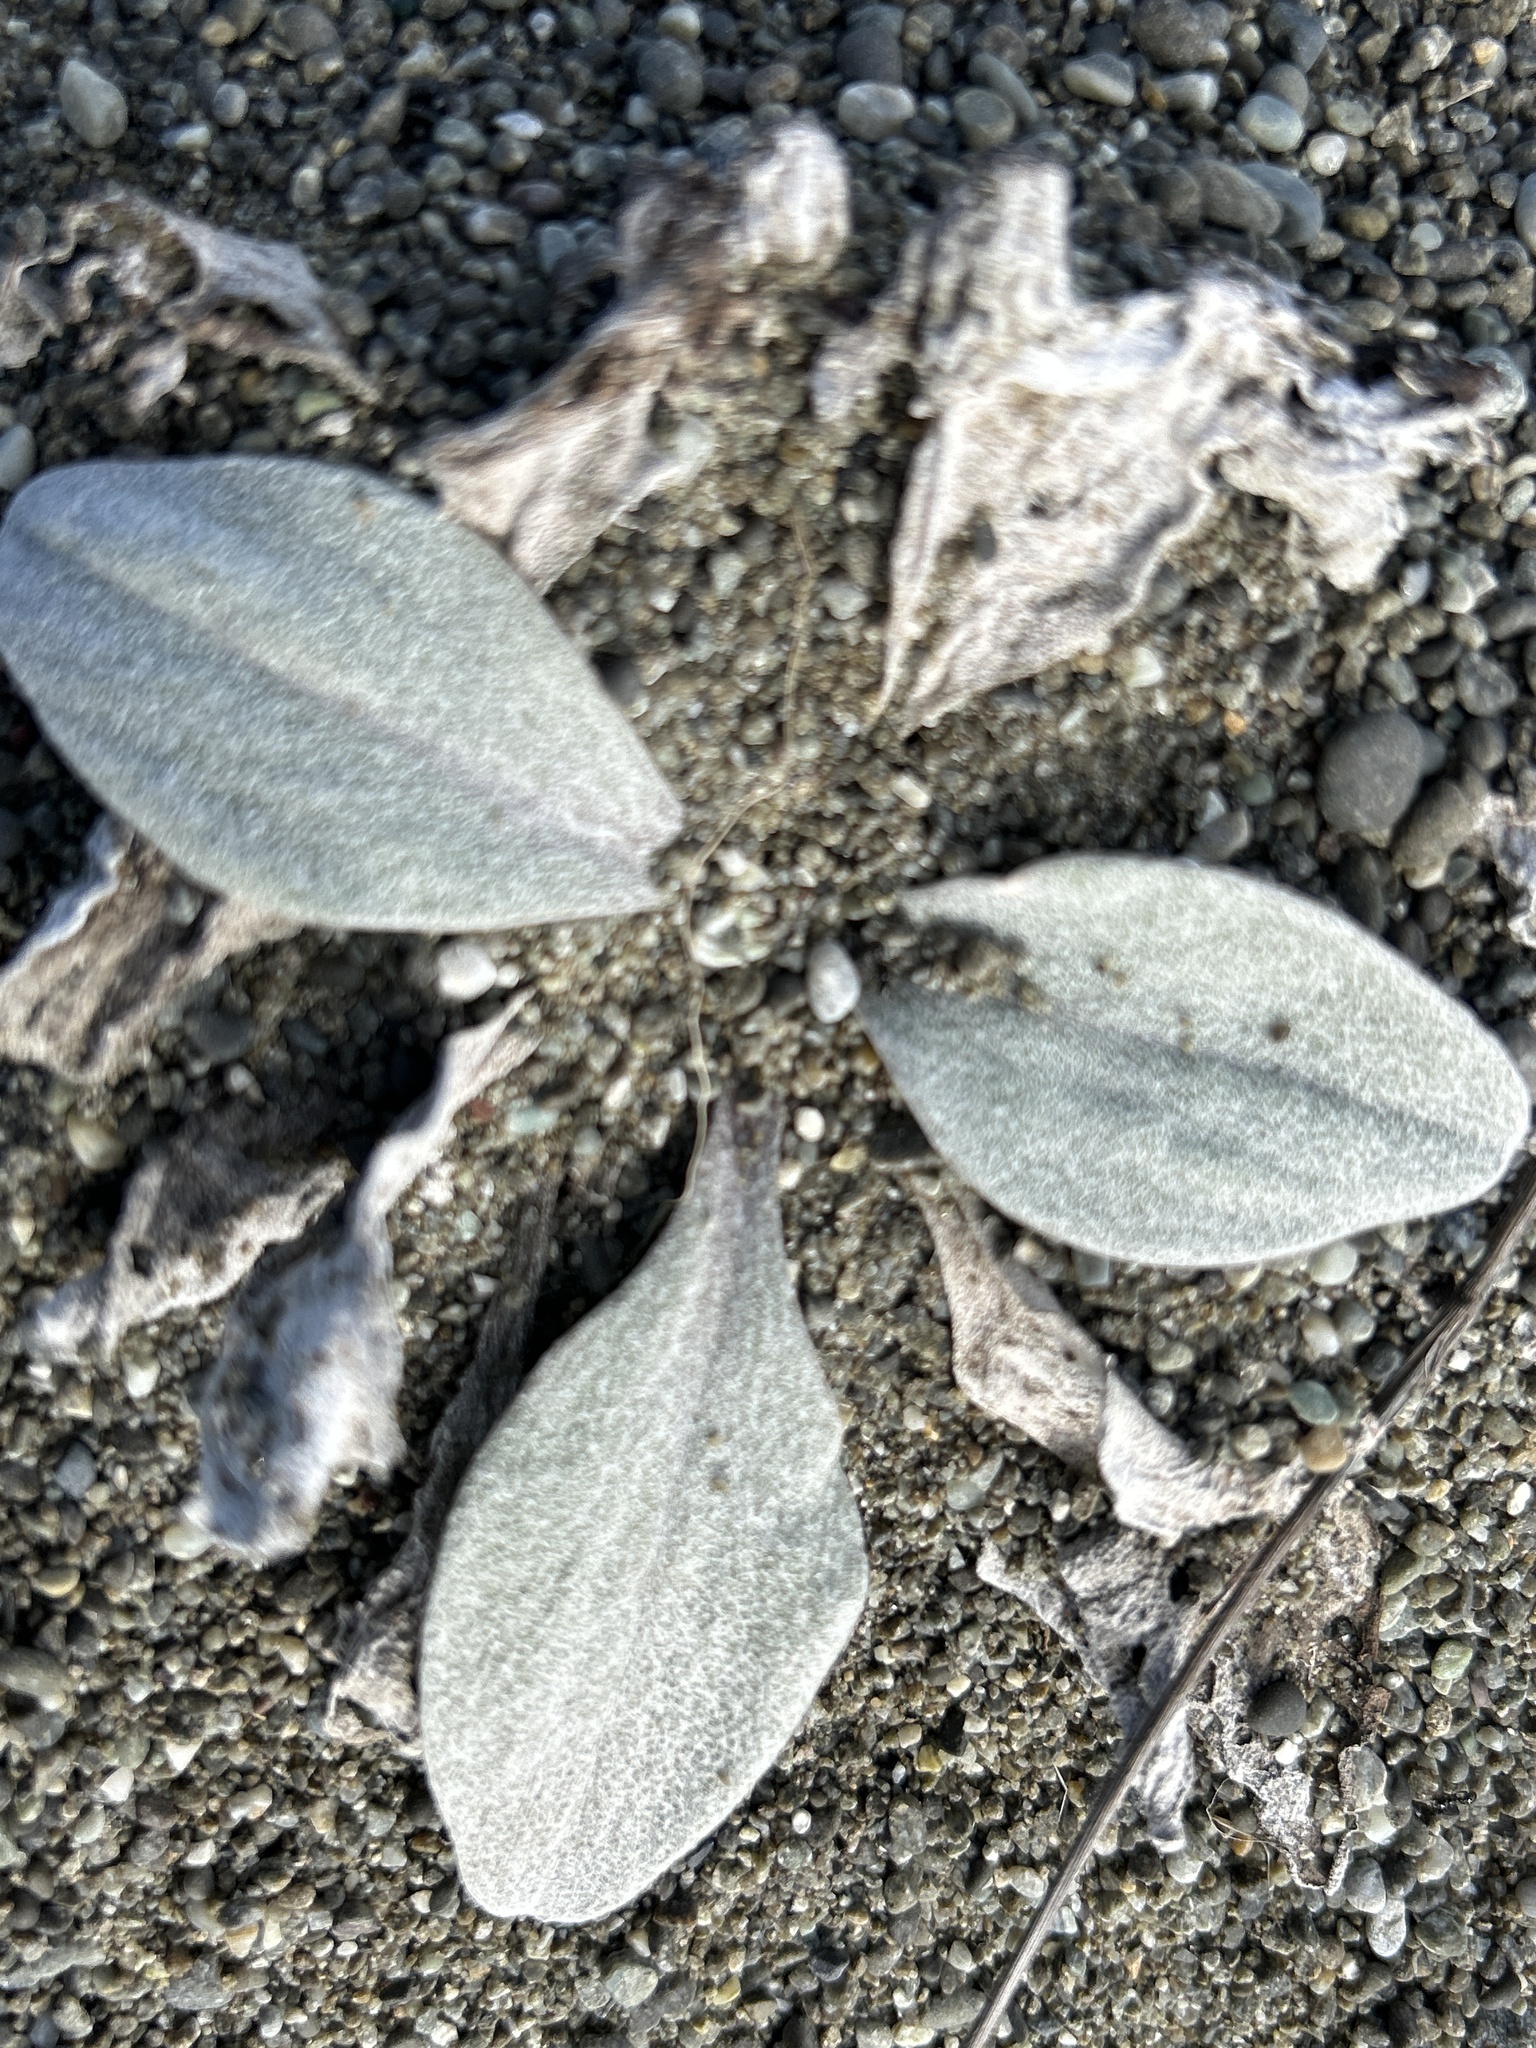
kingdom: Plantae
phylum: Tracheophyta
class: Magnoliopsida
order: Asterales
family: Asteraceae
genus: Craspedia
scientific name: Craspedia
